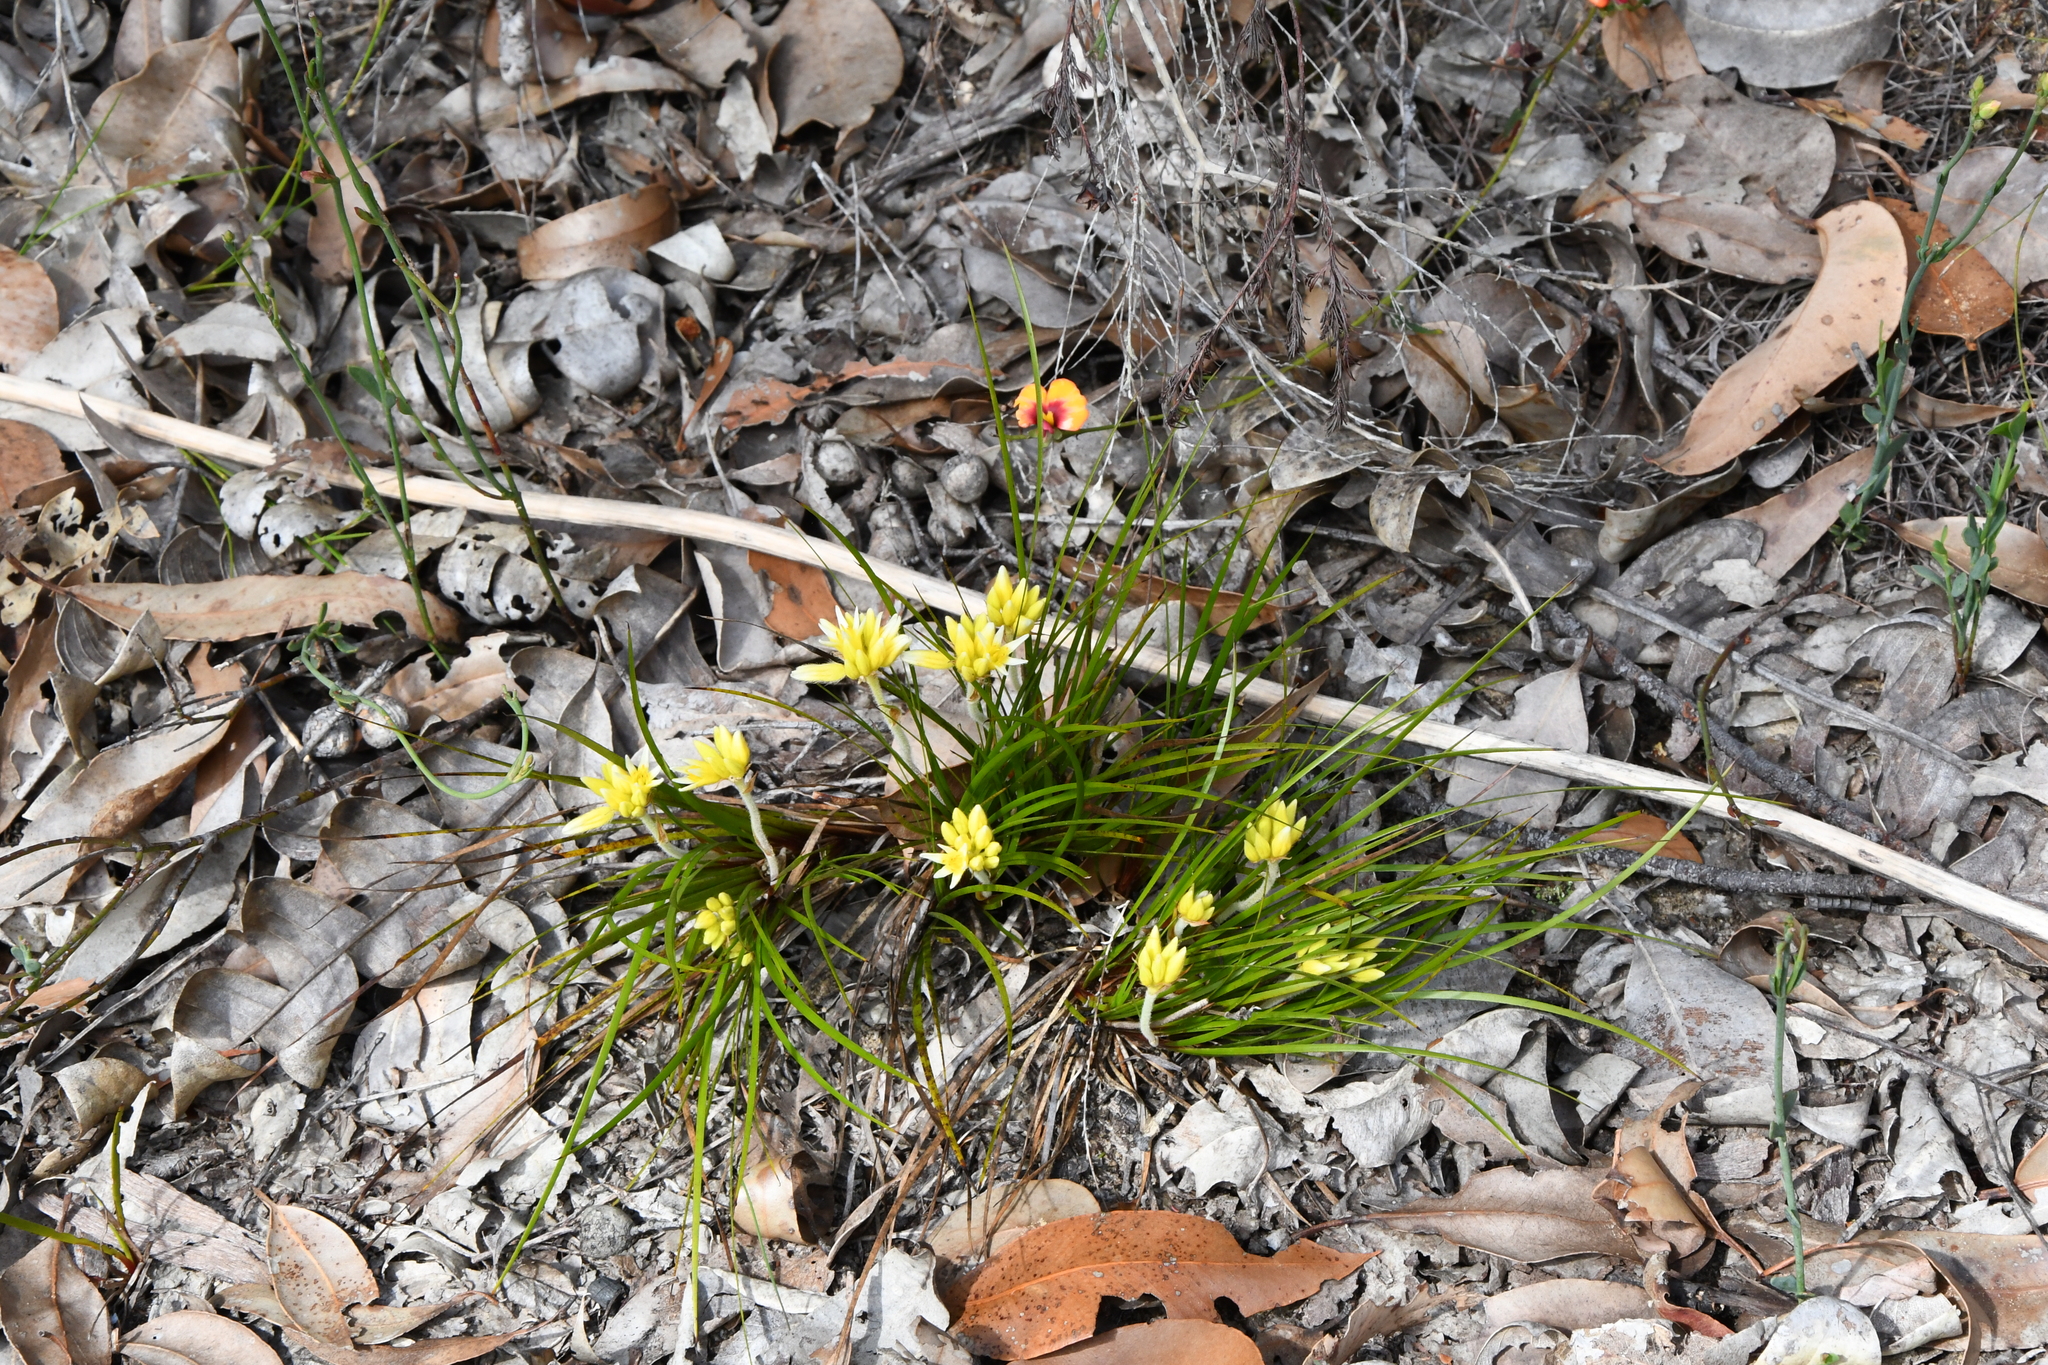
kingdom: Plantae
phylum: Tracheophyta
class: Liliopsida
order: Commelinales
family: Haemodoraceae
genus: Conostylis
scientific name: Conostylis laxiflora
